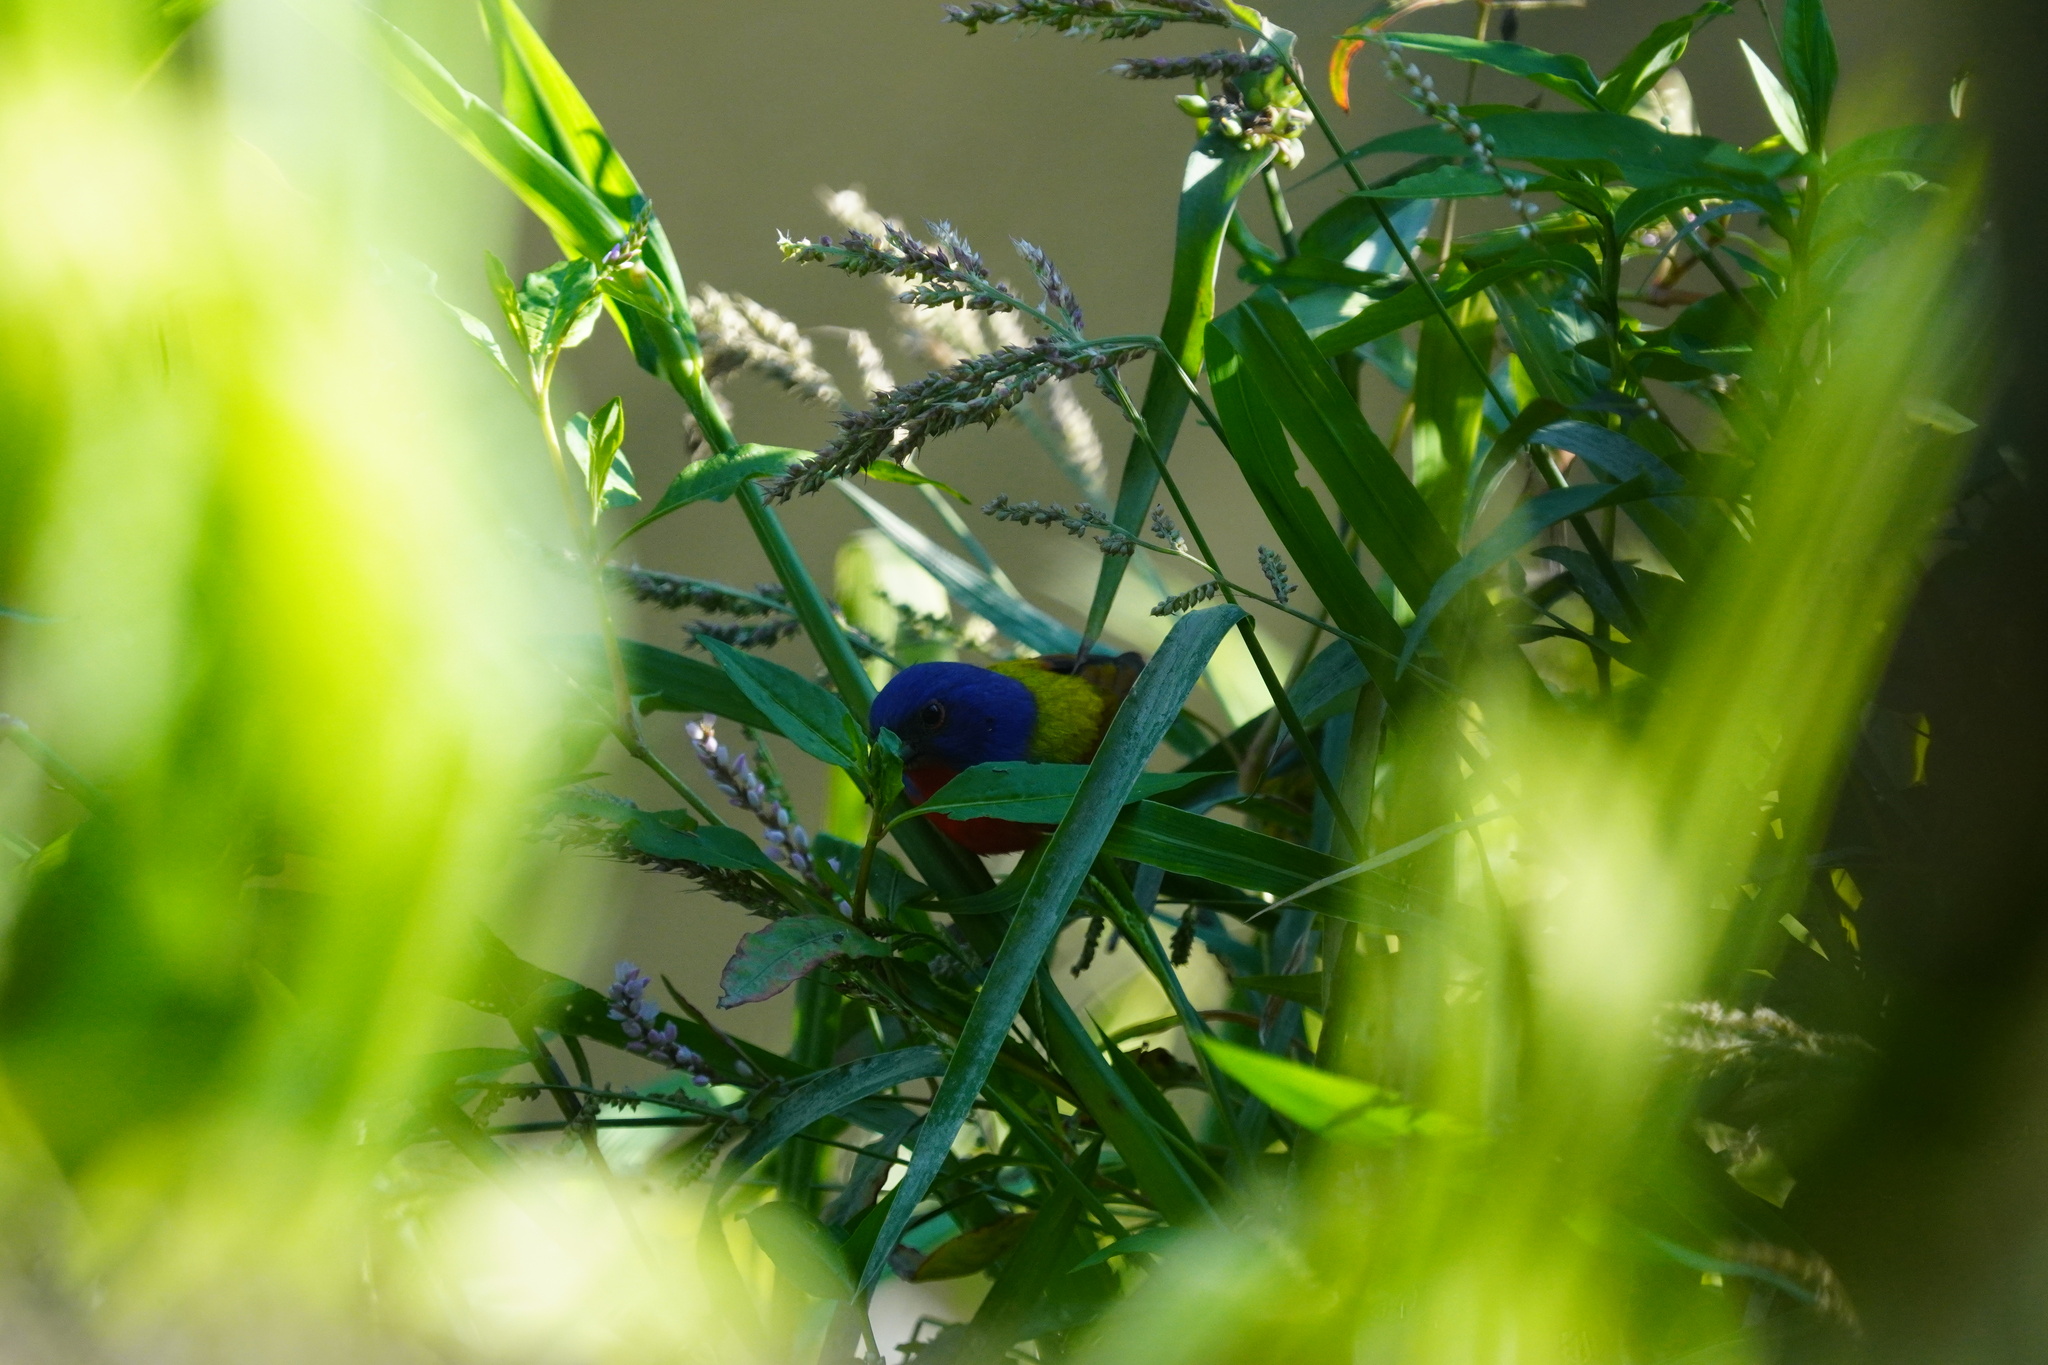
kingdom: Animalia
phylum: Chordata
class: Aves
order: Passeriformes
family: Cardinalidae
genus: Passerina
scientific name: Passerina ciris
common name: Painted bunting
